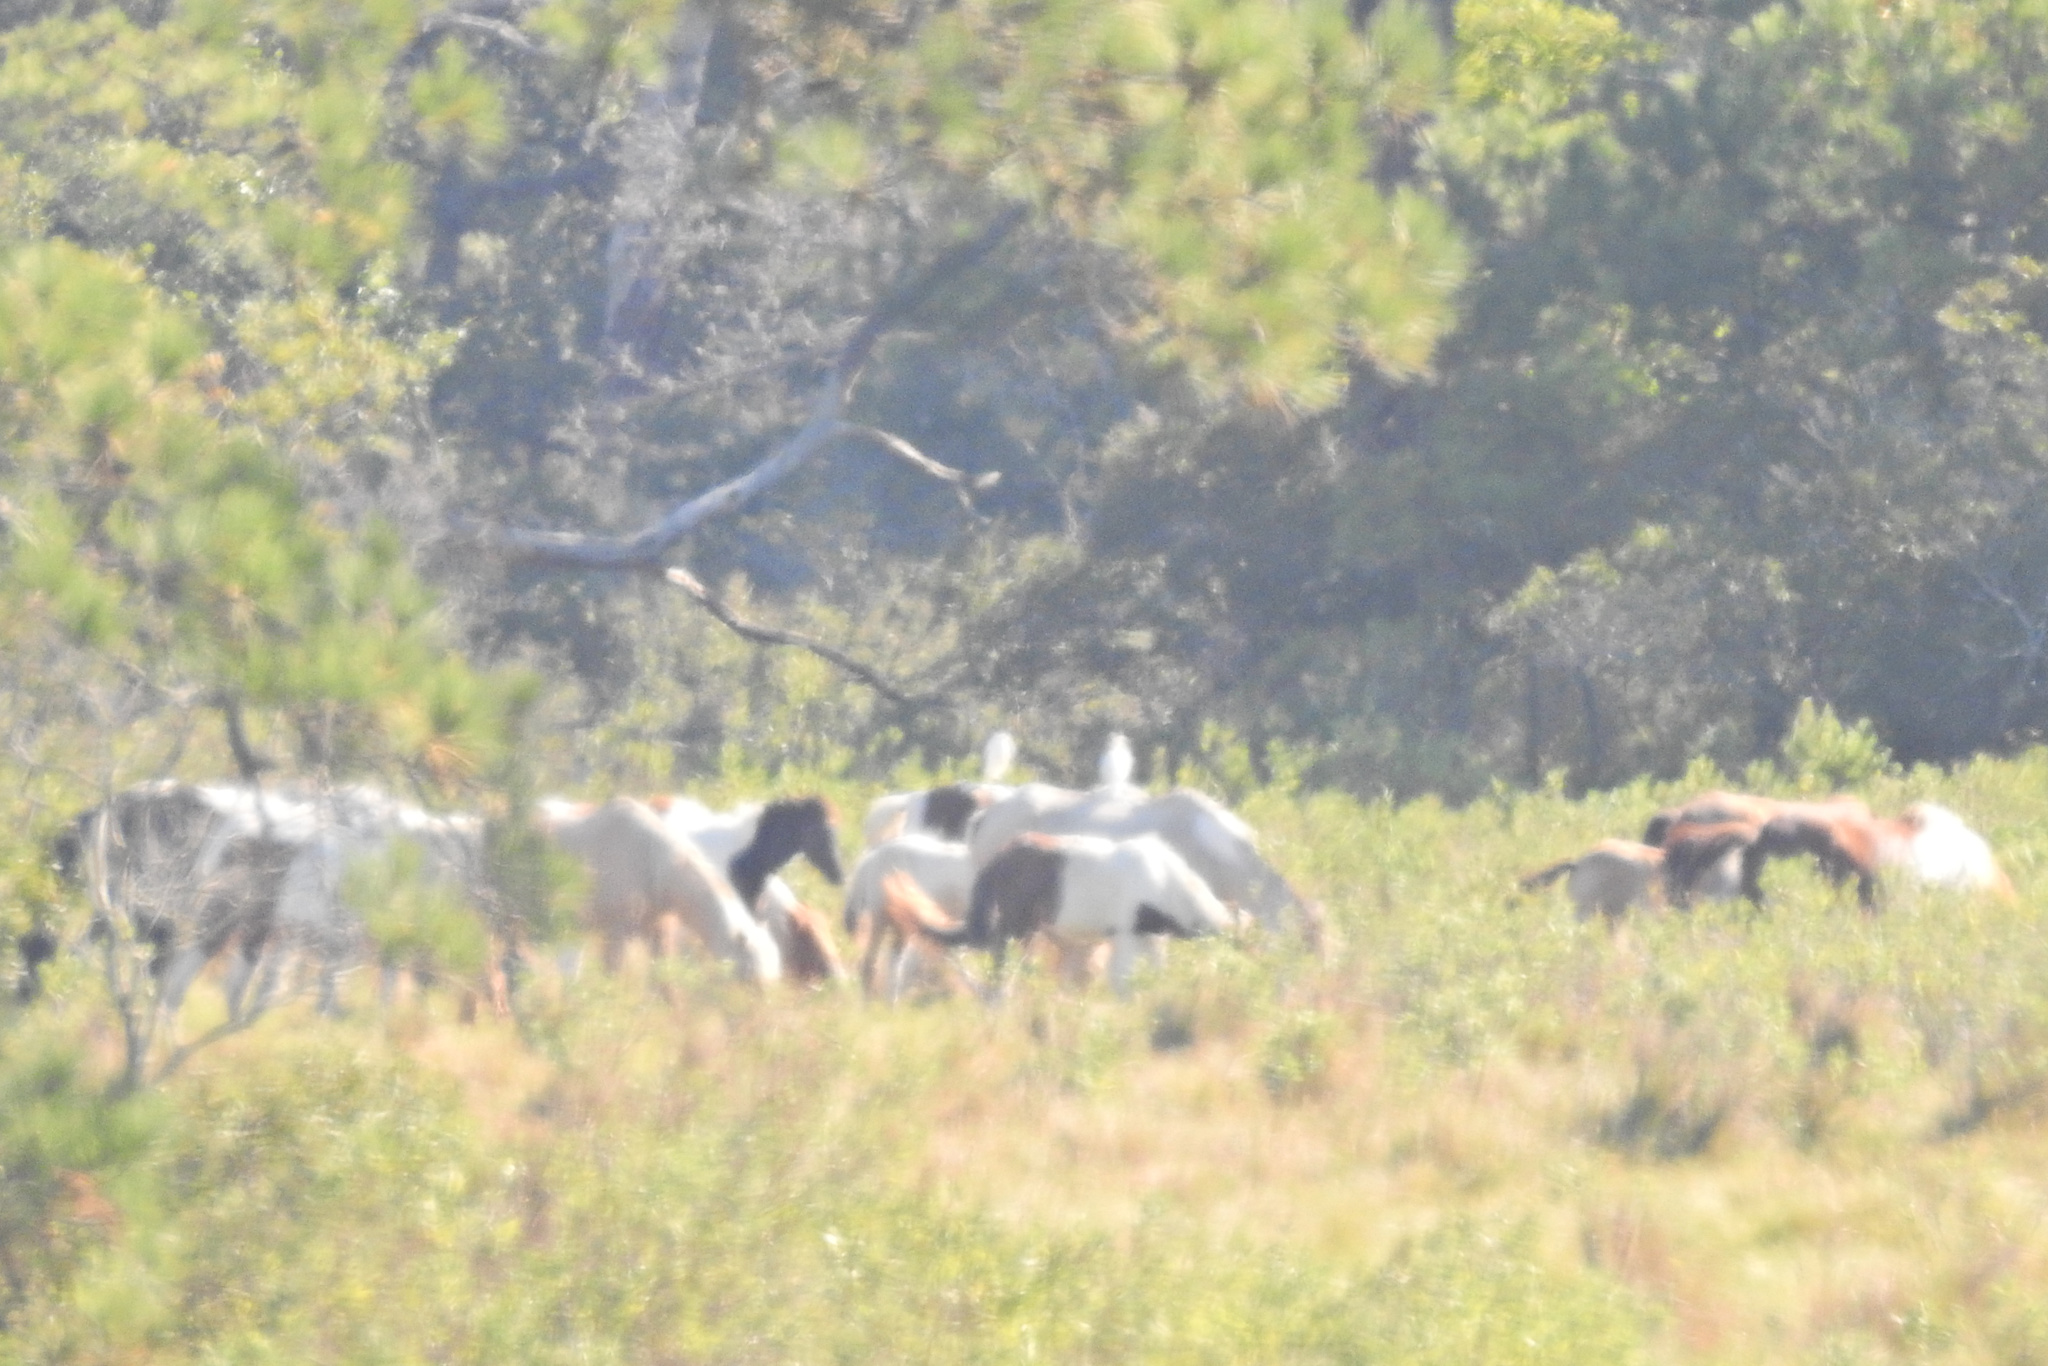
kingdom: Animalia
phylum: Chordata
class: Mammalia
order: Perissodactyla
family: Equidae
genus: Equus
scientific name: Equus caballus
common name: Horse
